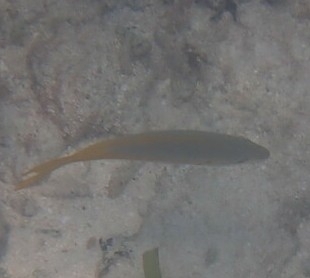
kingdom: Animalia
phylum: Chordata
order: Perciformes
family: Lutjanidae
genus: Ocyurus
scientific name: Ocyurus chrysurus
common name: Yellowtail snapper
